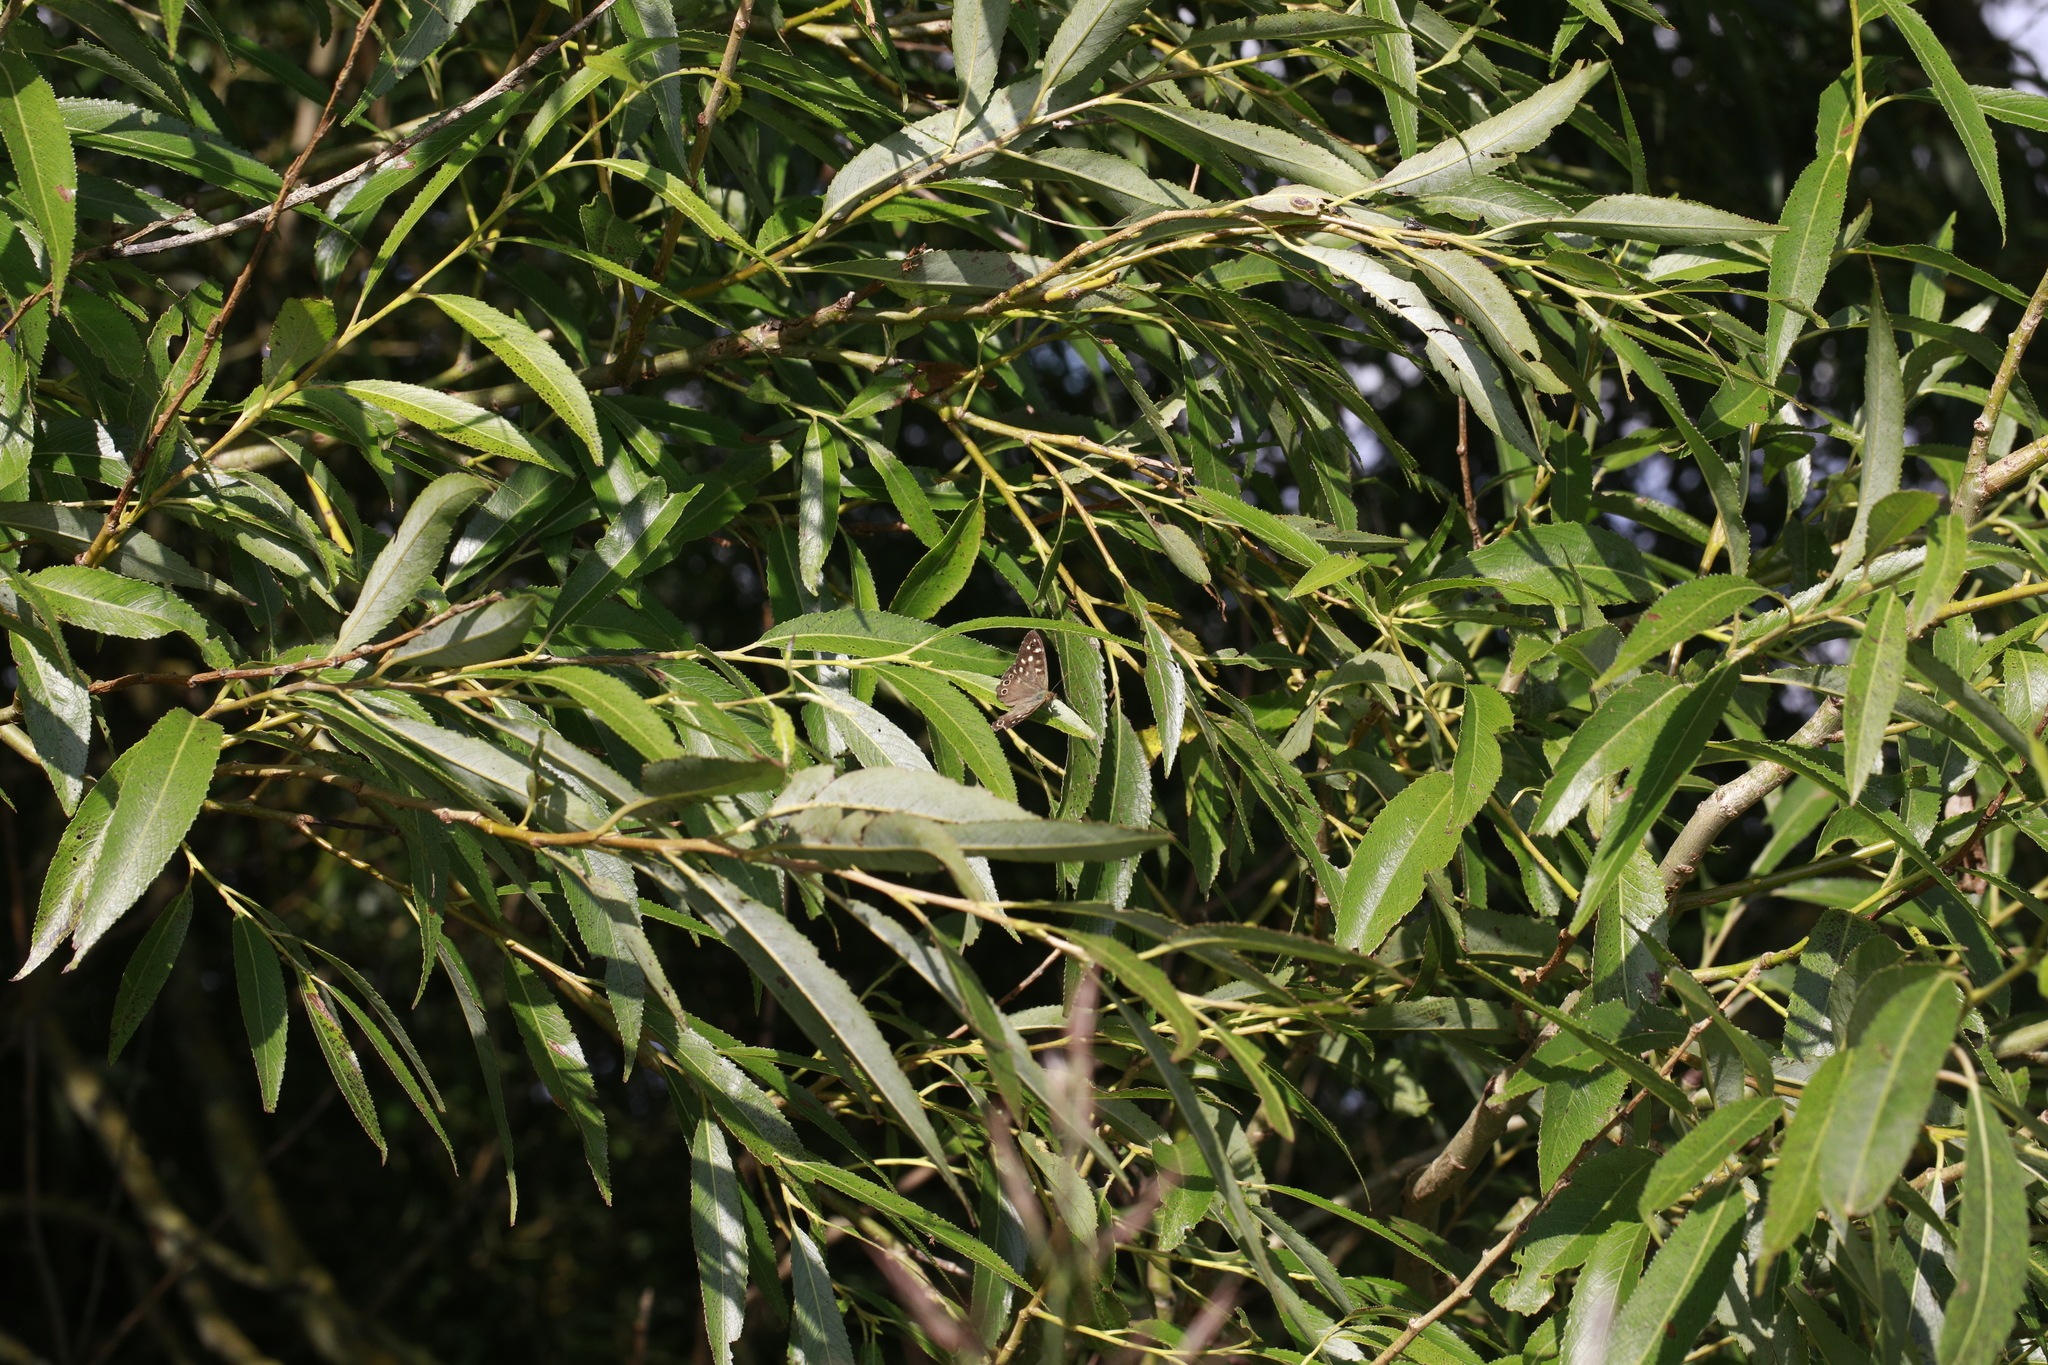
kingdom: Animalia
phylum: Arthropoda
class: Insecta
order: Lepidoptera
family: Nymphalidae
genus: Pararge
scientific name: Pararge aegeria
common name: Speckled wood
